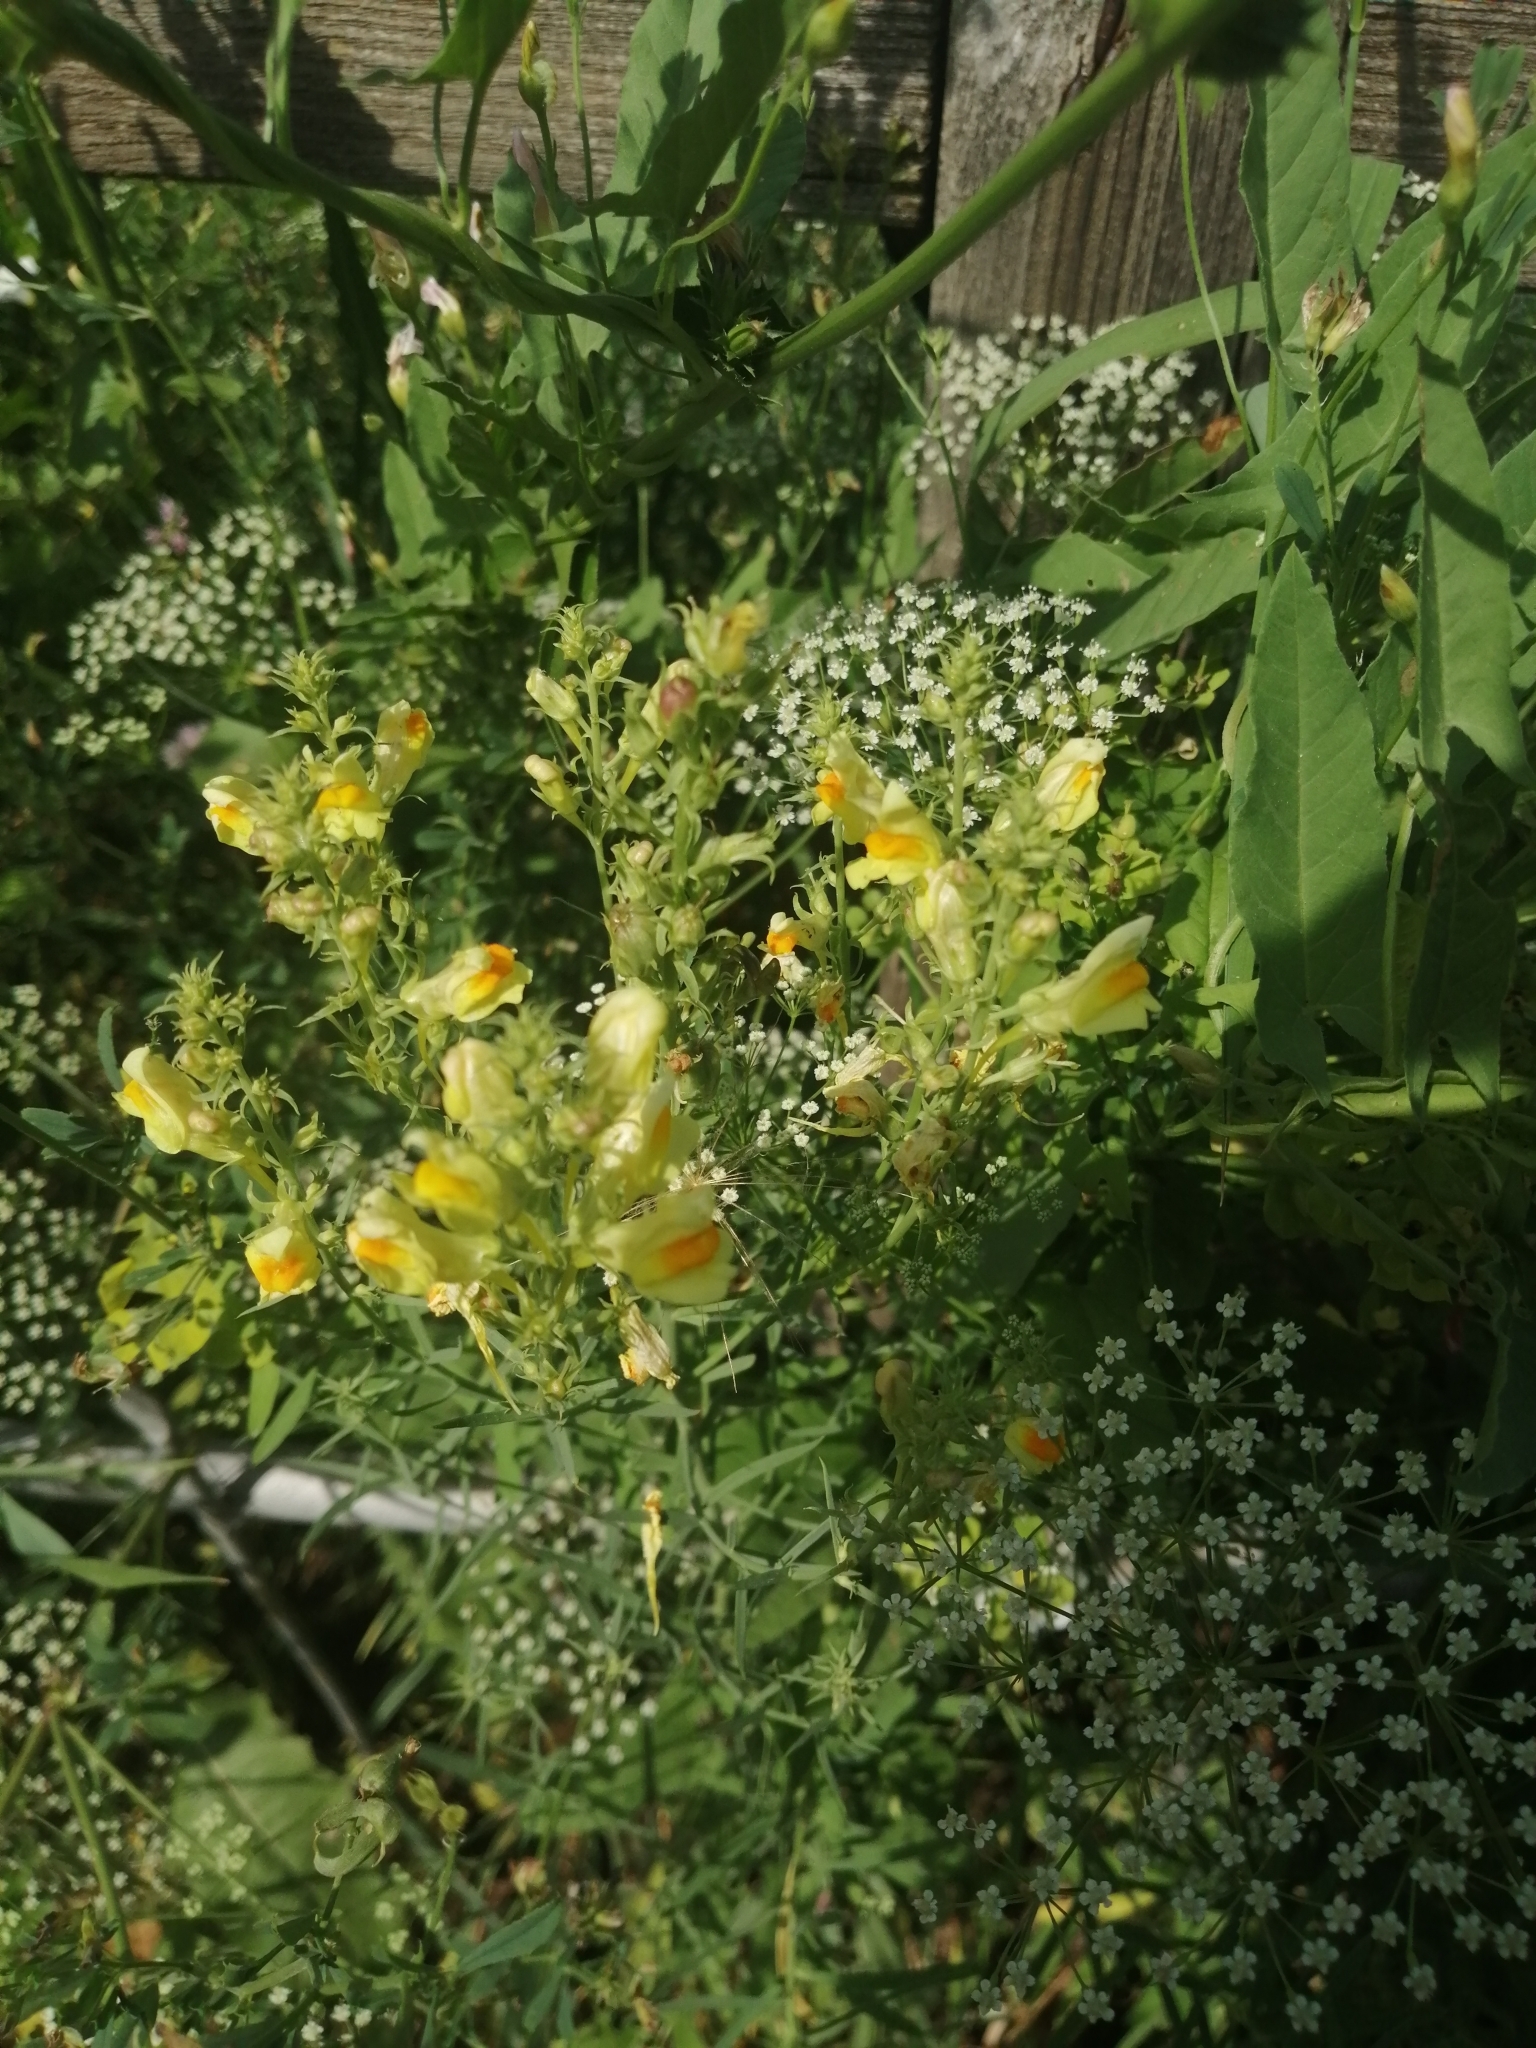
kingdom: Plantae
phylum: Tracheophyta
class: Magnoliopsida
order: Lamiales
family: Plantaginaceae
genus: Linaria
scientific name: Linaria vulgaris
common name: Butter and eggs
